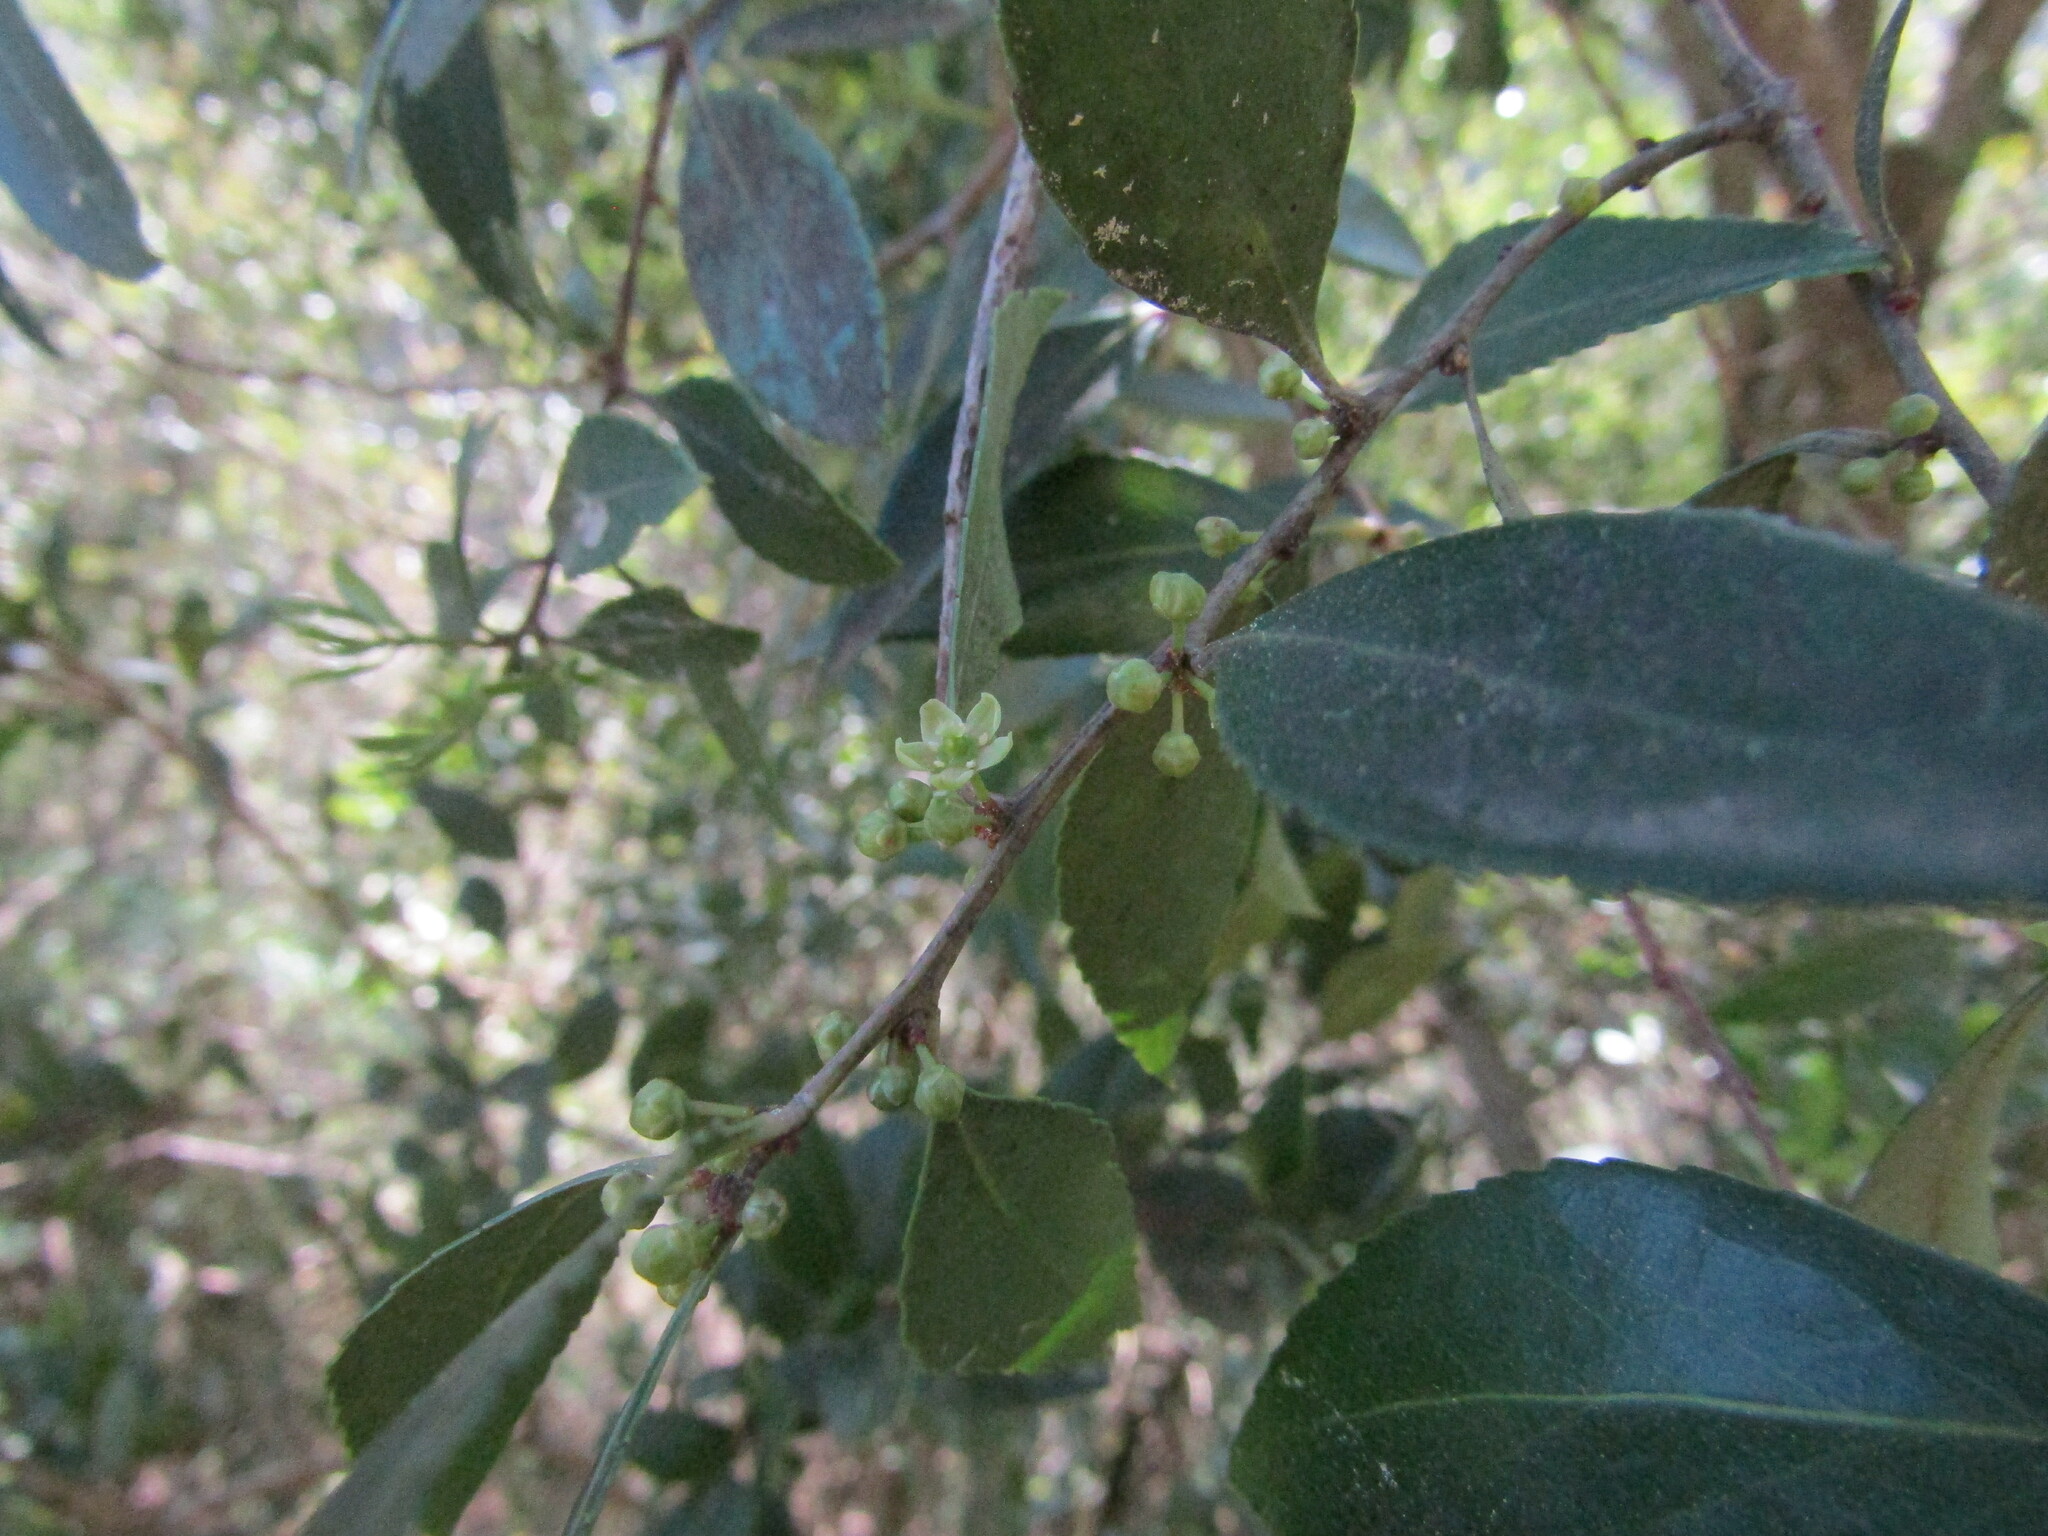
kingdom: Plantae
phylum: Tracheophyta
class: Magnoliopsida
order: Celastrales
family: Celastraceae
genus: Maytenus
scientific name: Maytenus boaria
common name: Mayten
